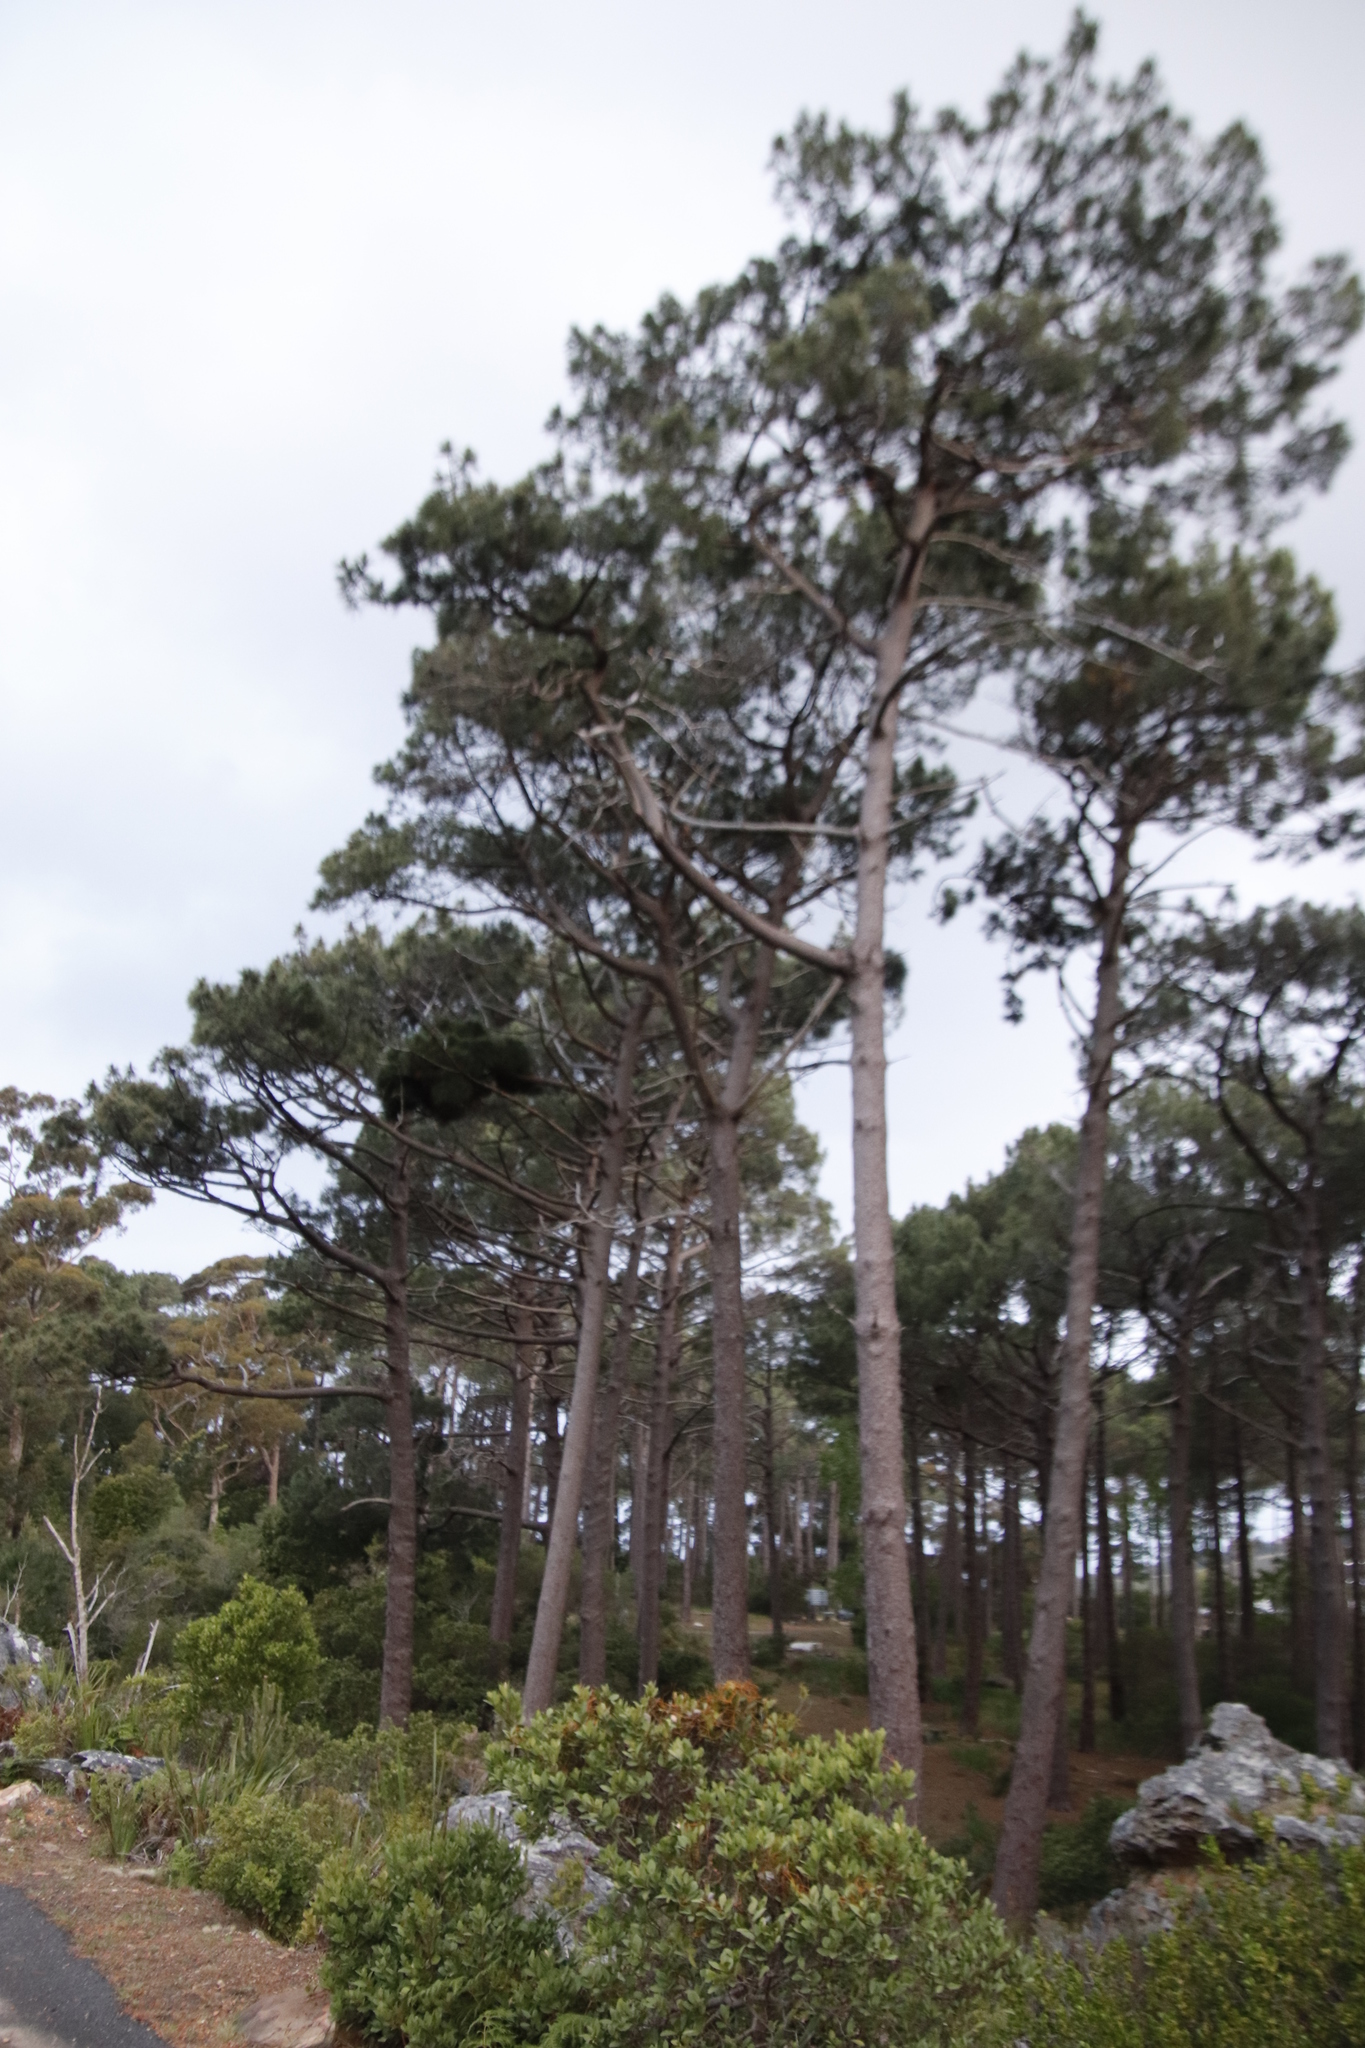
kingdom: Plantae
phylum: Tracheophyta
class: Pinopsida
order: Pinales
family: Pinaceae
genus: Pinus
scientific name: Pinus pinea
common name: Italian stone pine
